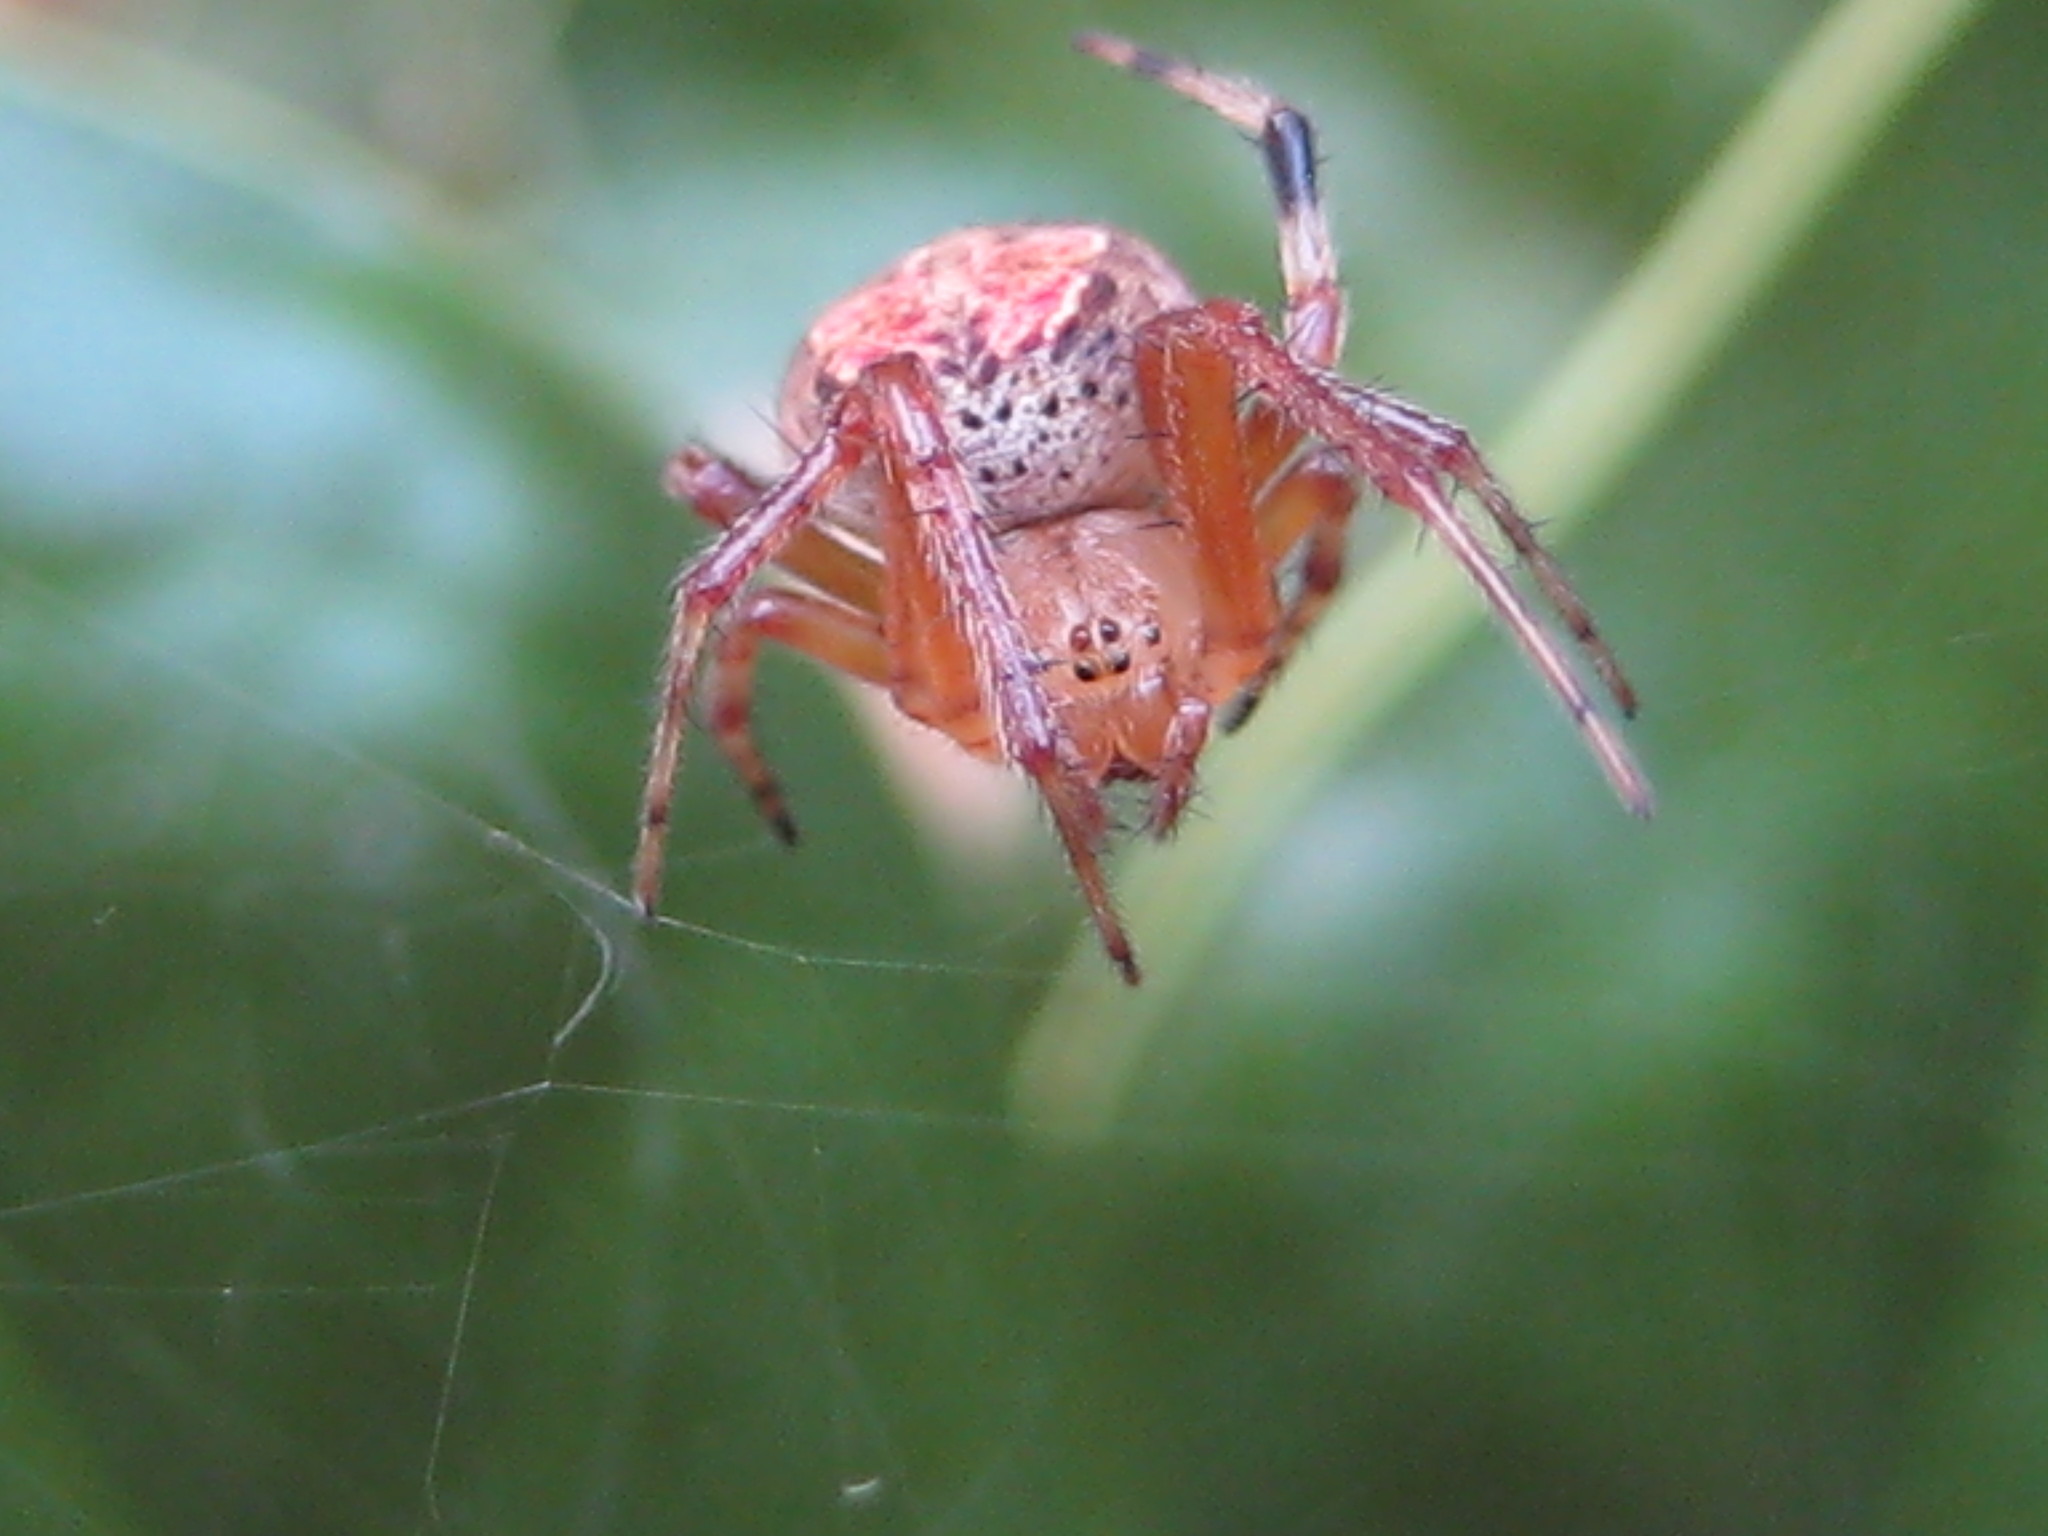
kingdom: Animalia
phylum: Arthropoda
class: Arachnida
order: Araneae
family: Araneidae
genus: Araneus
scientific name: Araneus pegnia
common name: Orb weavers
